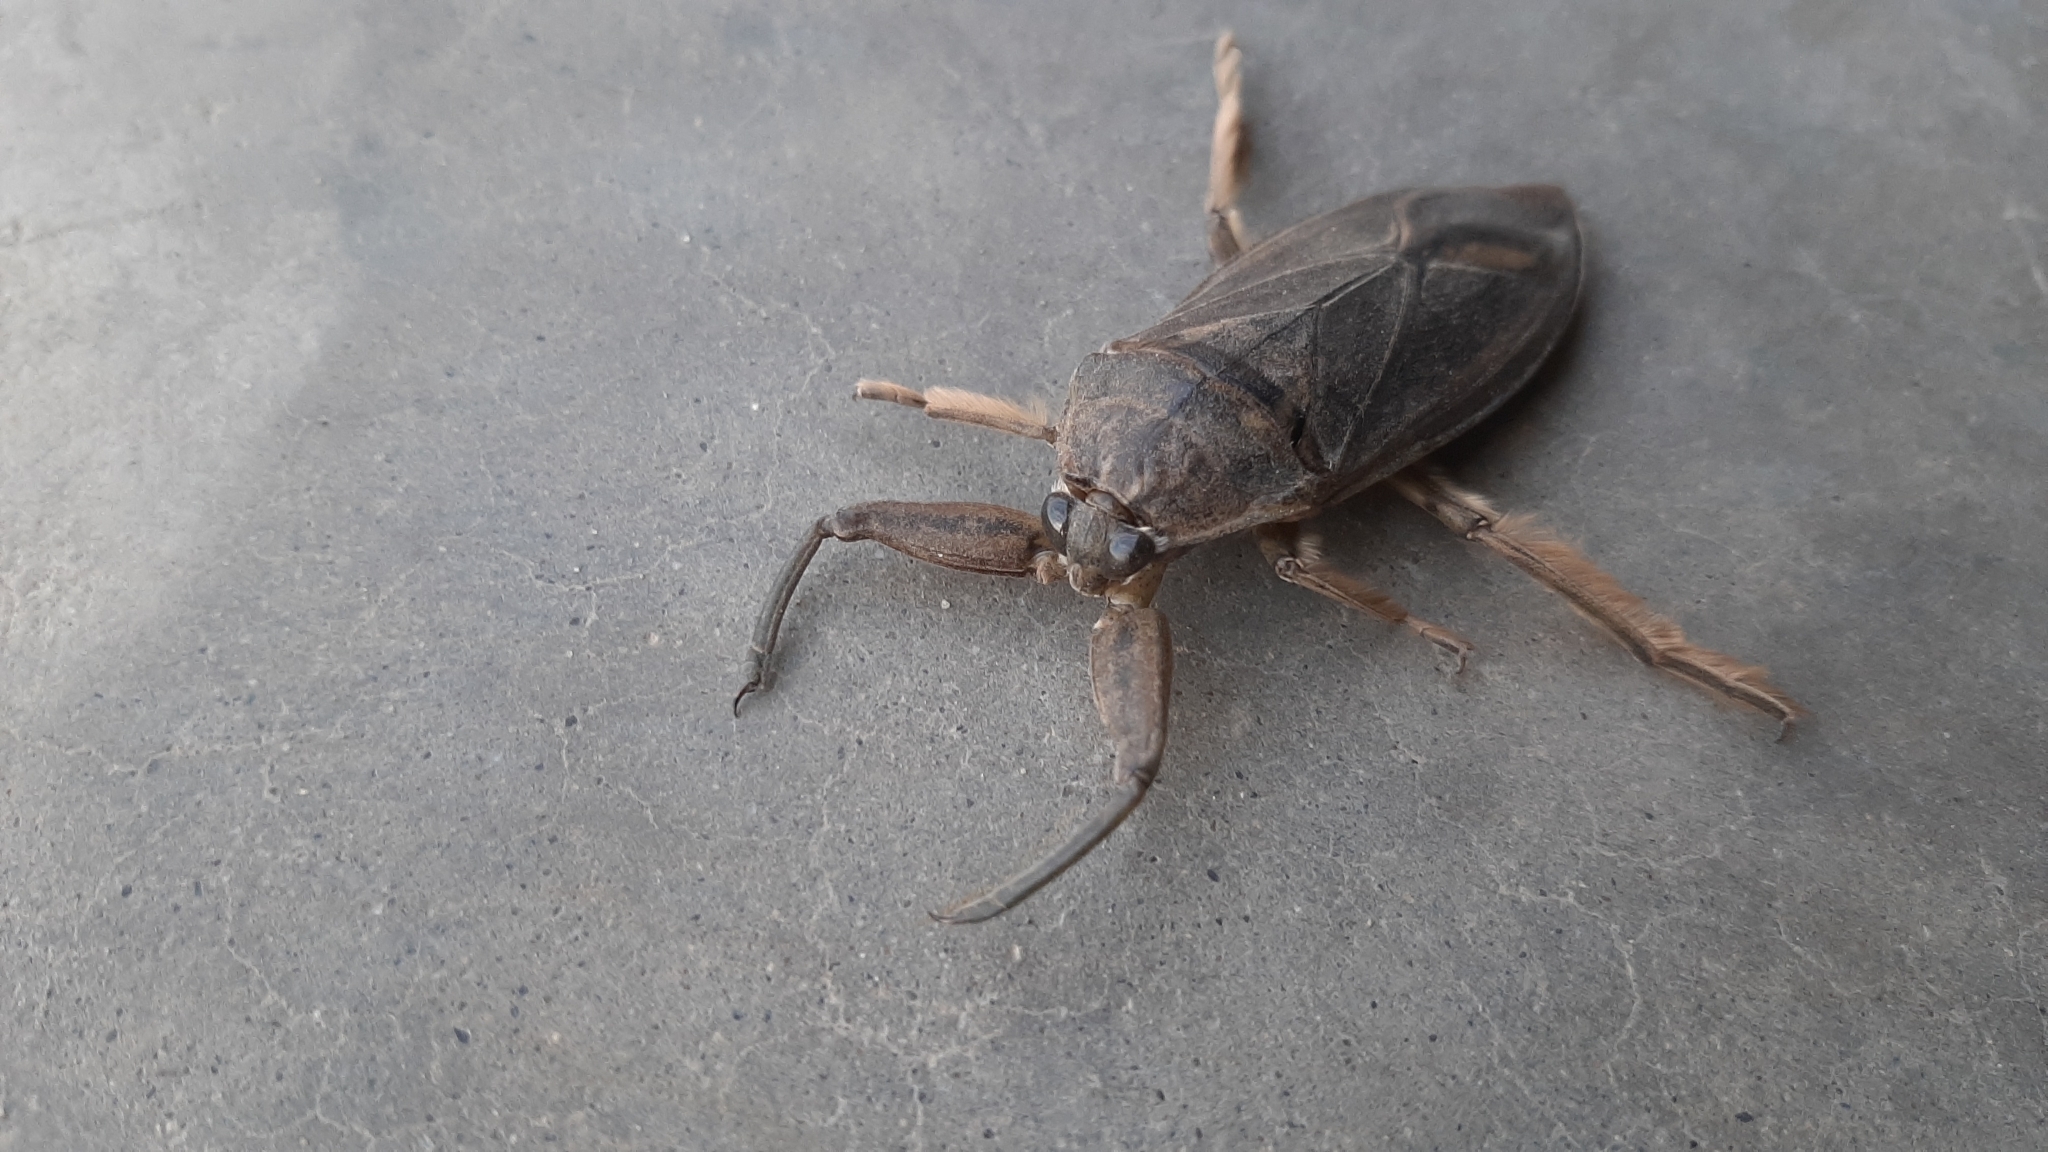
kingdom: Animalia
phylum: Arthropoda
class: Insecta
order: Hemiptera
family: Belostomatidae
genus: Lethocerus
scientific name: Lethocerus americanus
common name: Giant water bug
